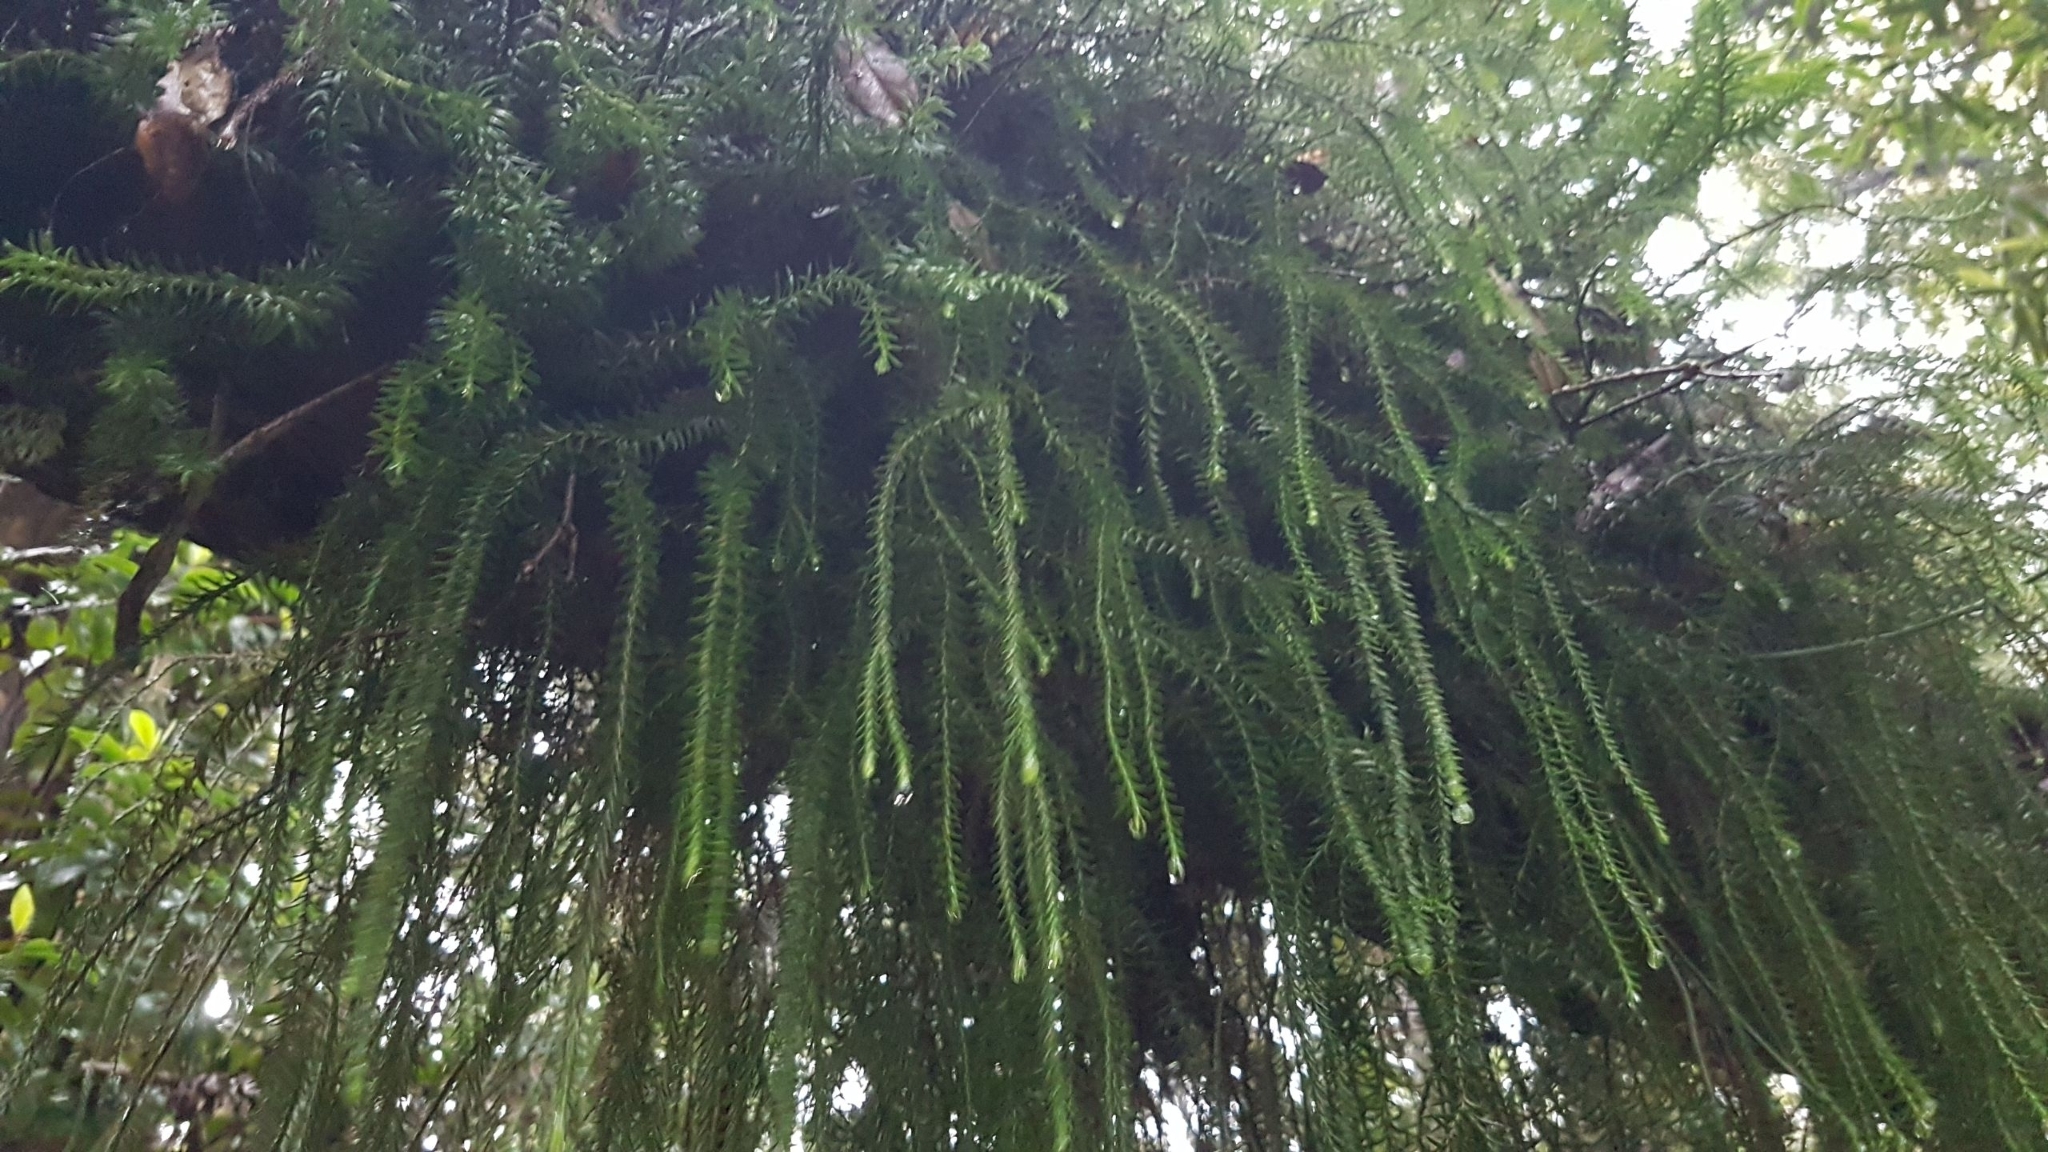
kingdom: Plantae
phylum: Tracheophyta
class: Lycopodiopsida
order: Lycopodiales
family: Lycopodiaceae
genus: Phlegmariurus
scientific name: Phlegmariurus varius
